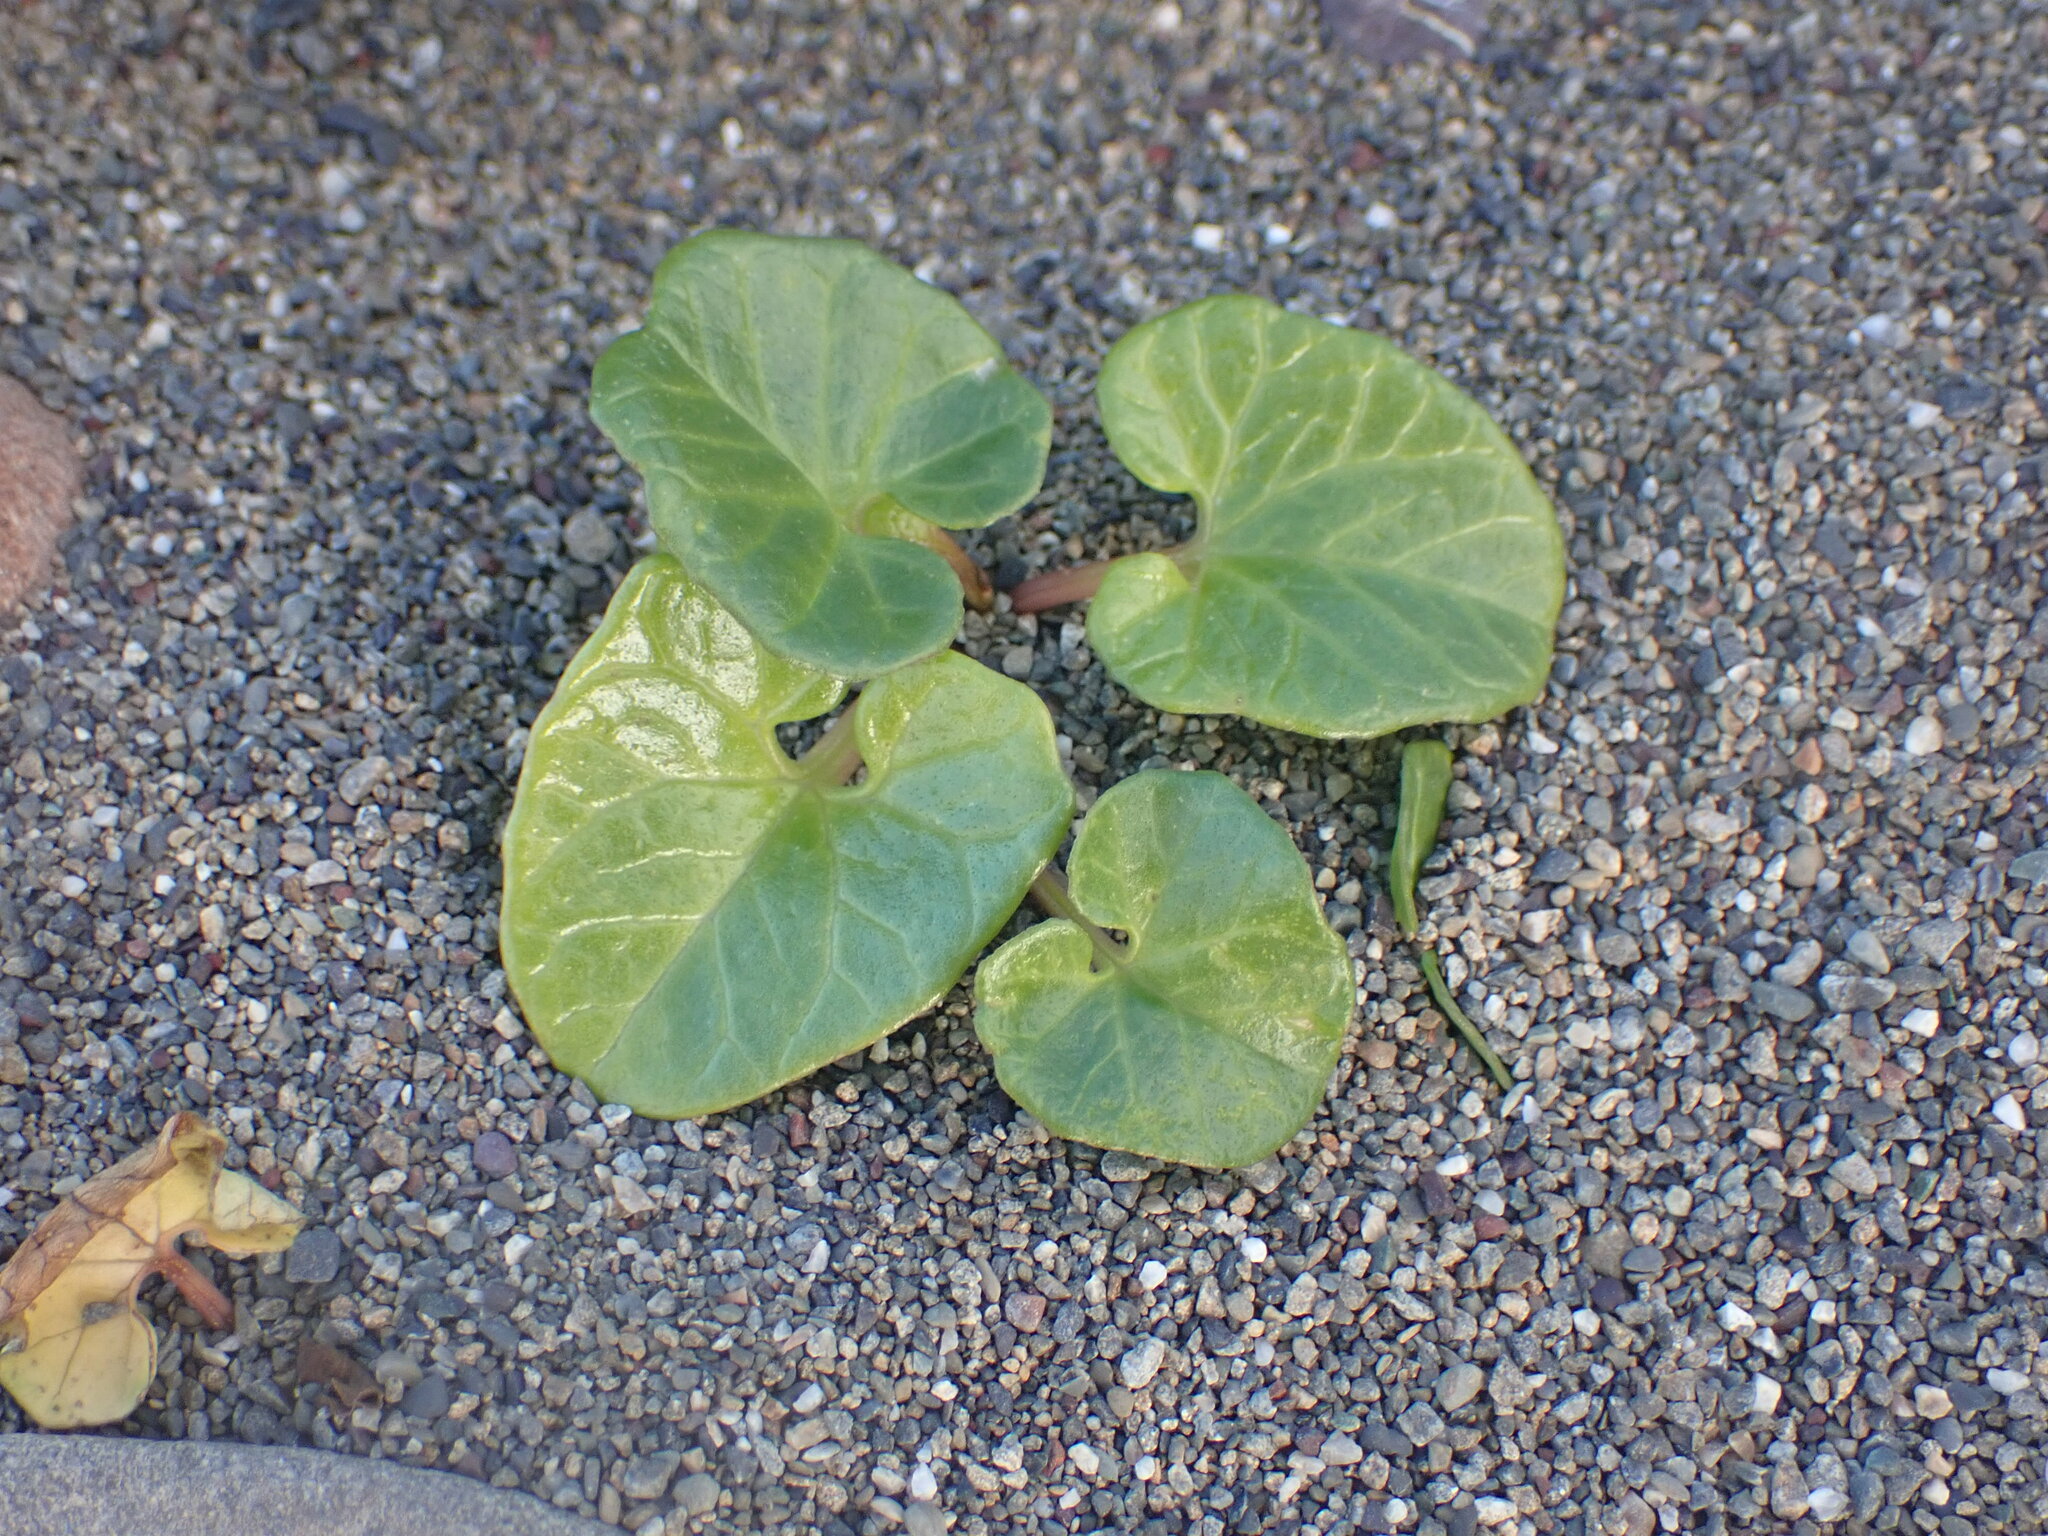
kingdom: Plantae
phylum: Tracheophyta
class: Magnoliopsida
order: Solanales
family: Convolvulaceae
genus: Calystegia
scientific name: Calystegia soldanella
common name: Sea bindweed
